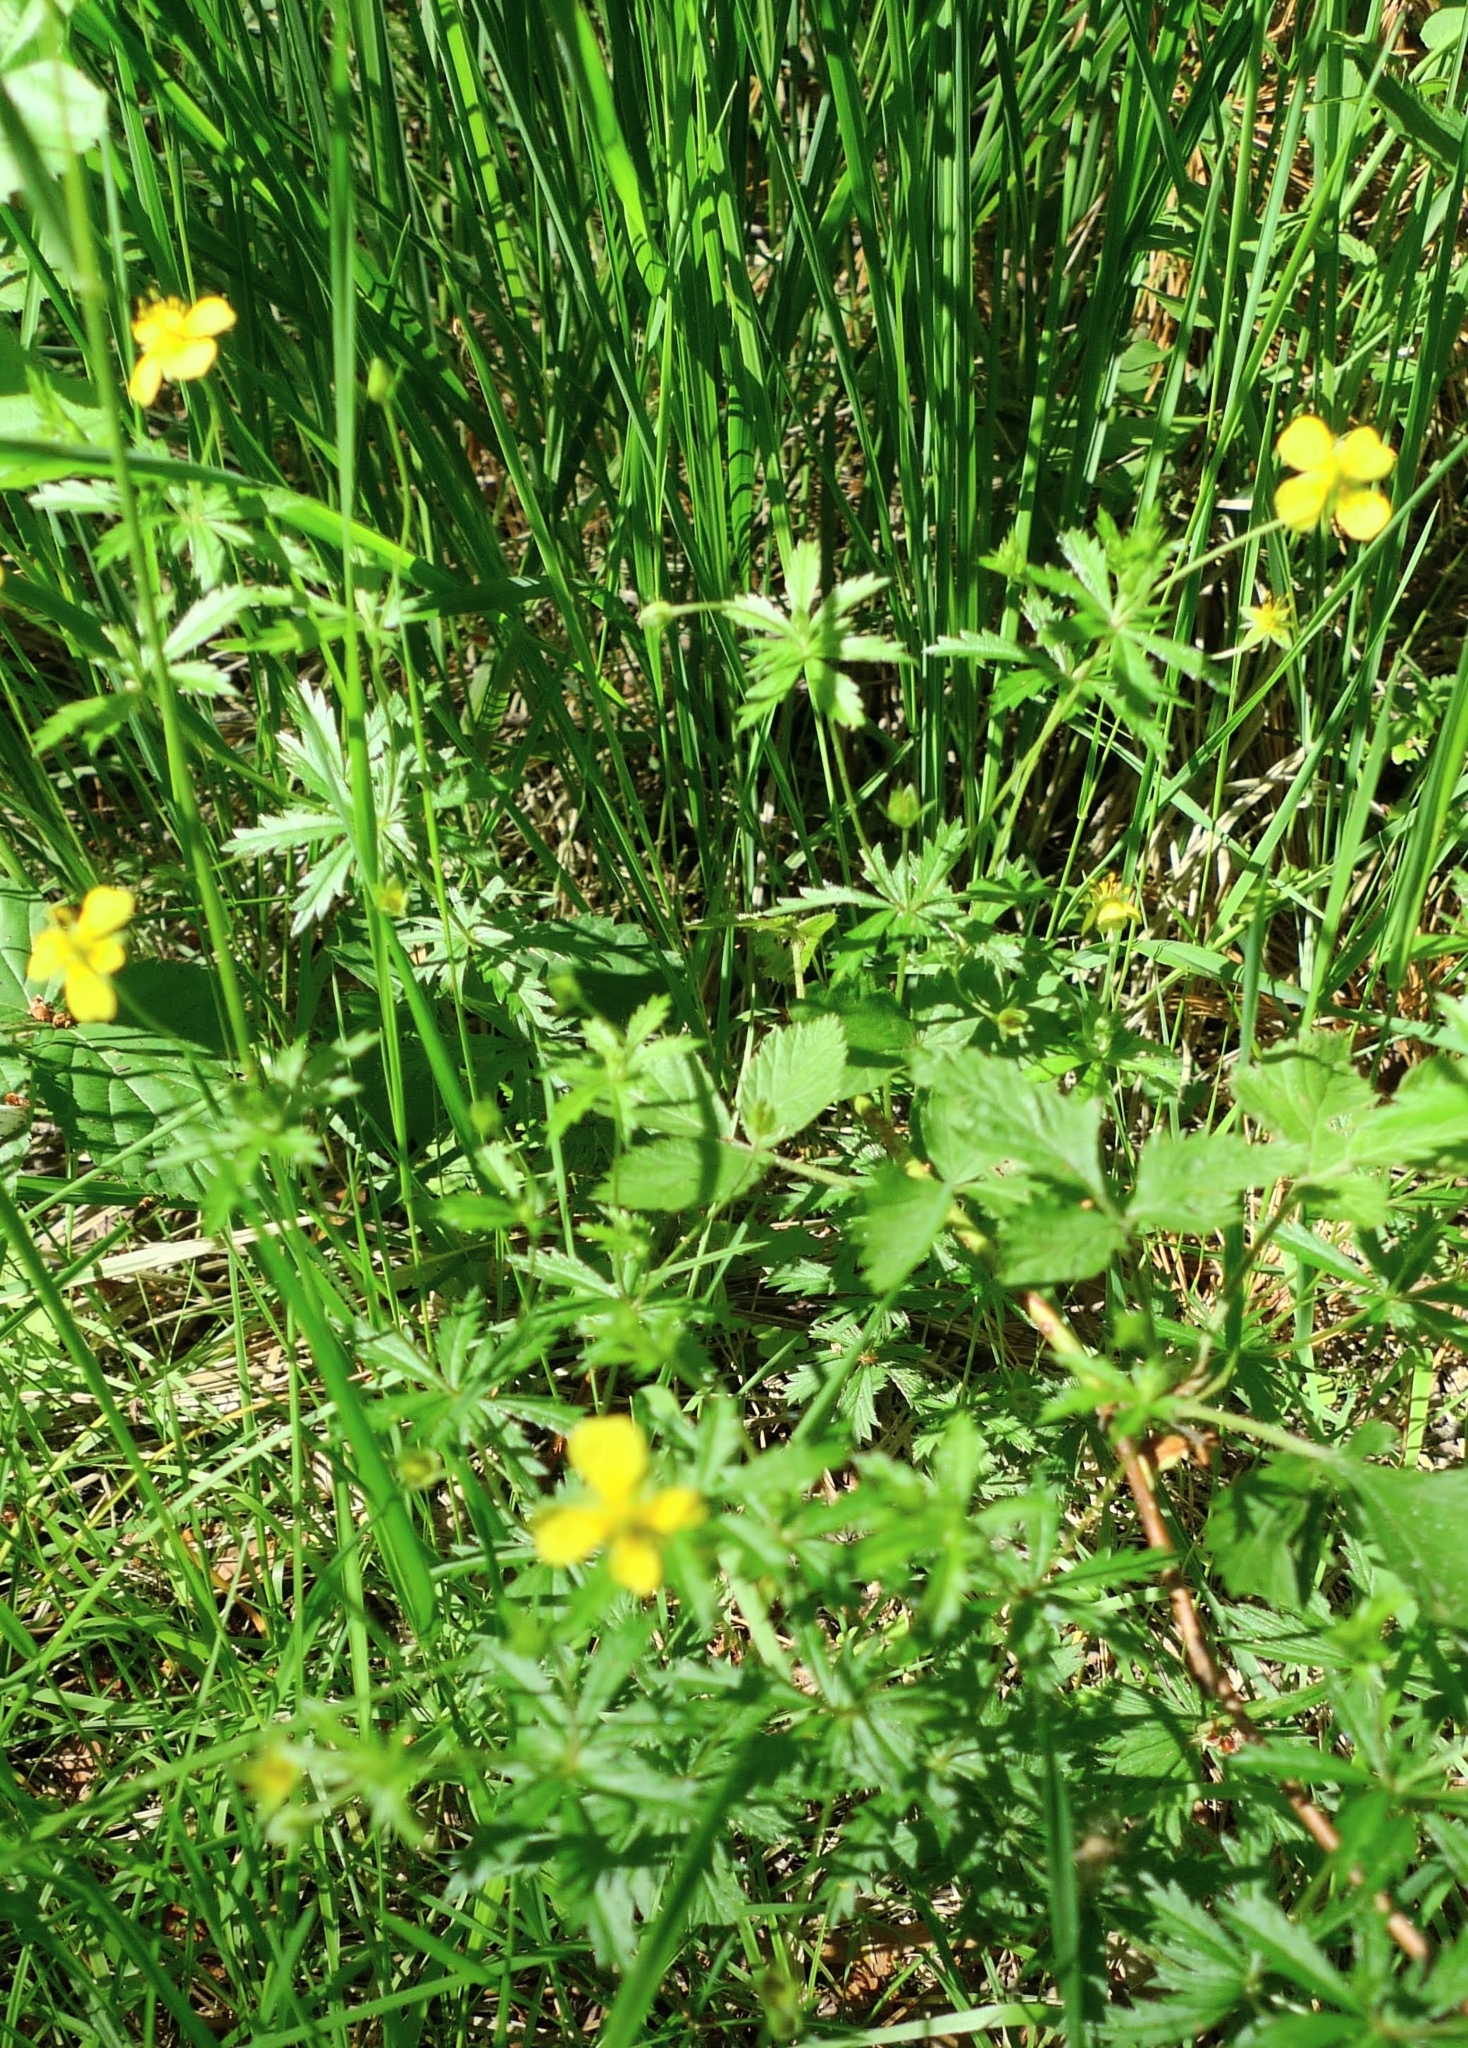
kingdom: Plantae
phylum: Tracheophyta
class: Magnoliopsida
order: Rosales
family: Rosaceae
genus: Potentilla
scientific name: Potentilla erecta
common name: Tormentil
